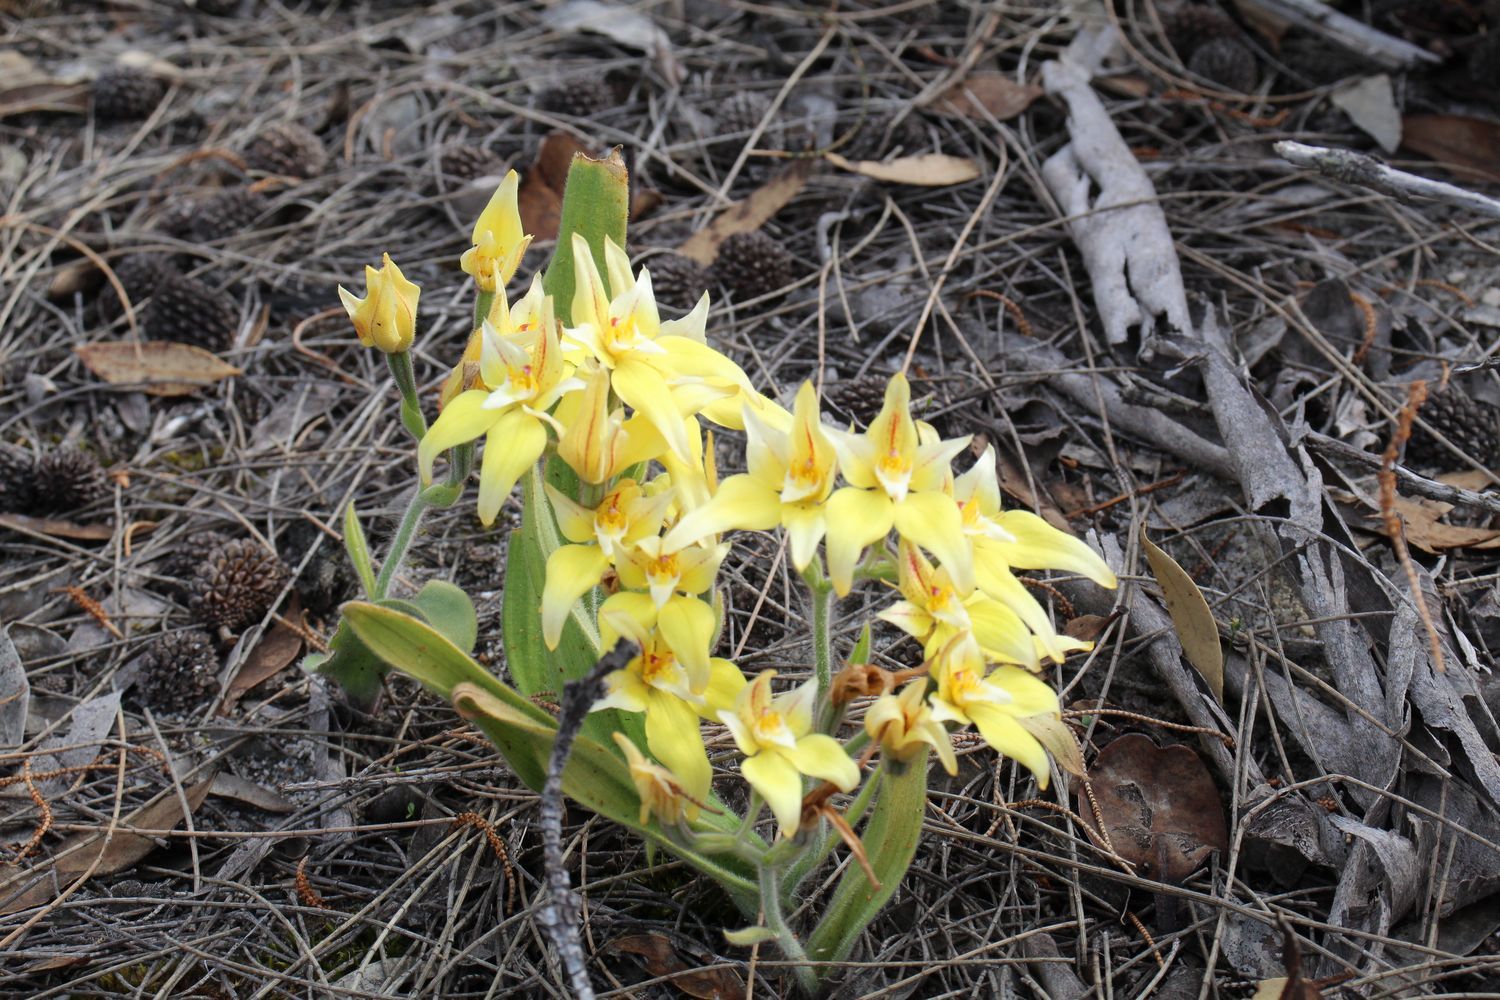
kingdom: Plantae
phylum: Tracheophyta
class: Liliopsida
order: Asparagales
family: Orchidaceae
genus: Caladenia
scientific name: Caladenia flava
